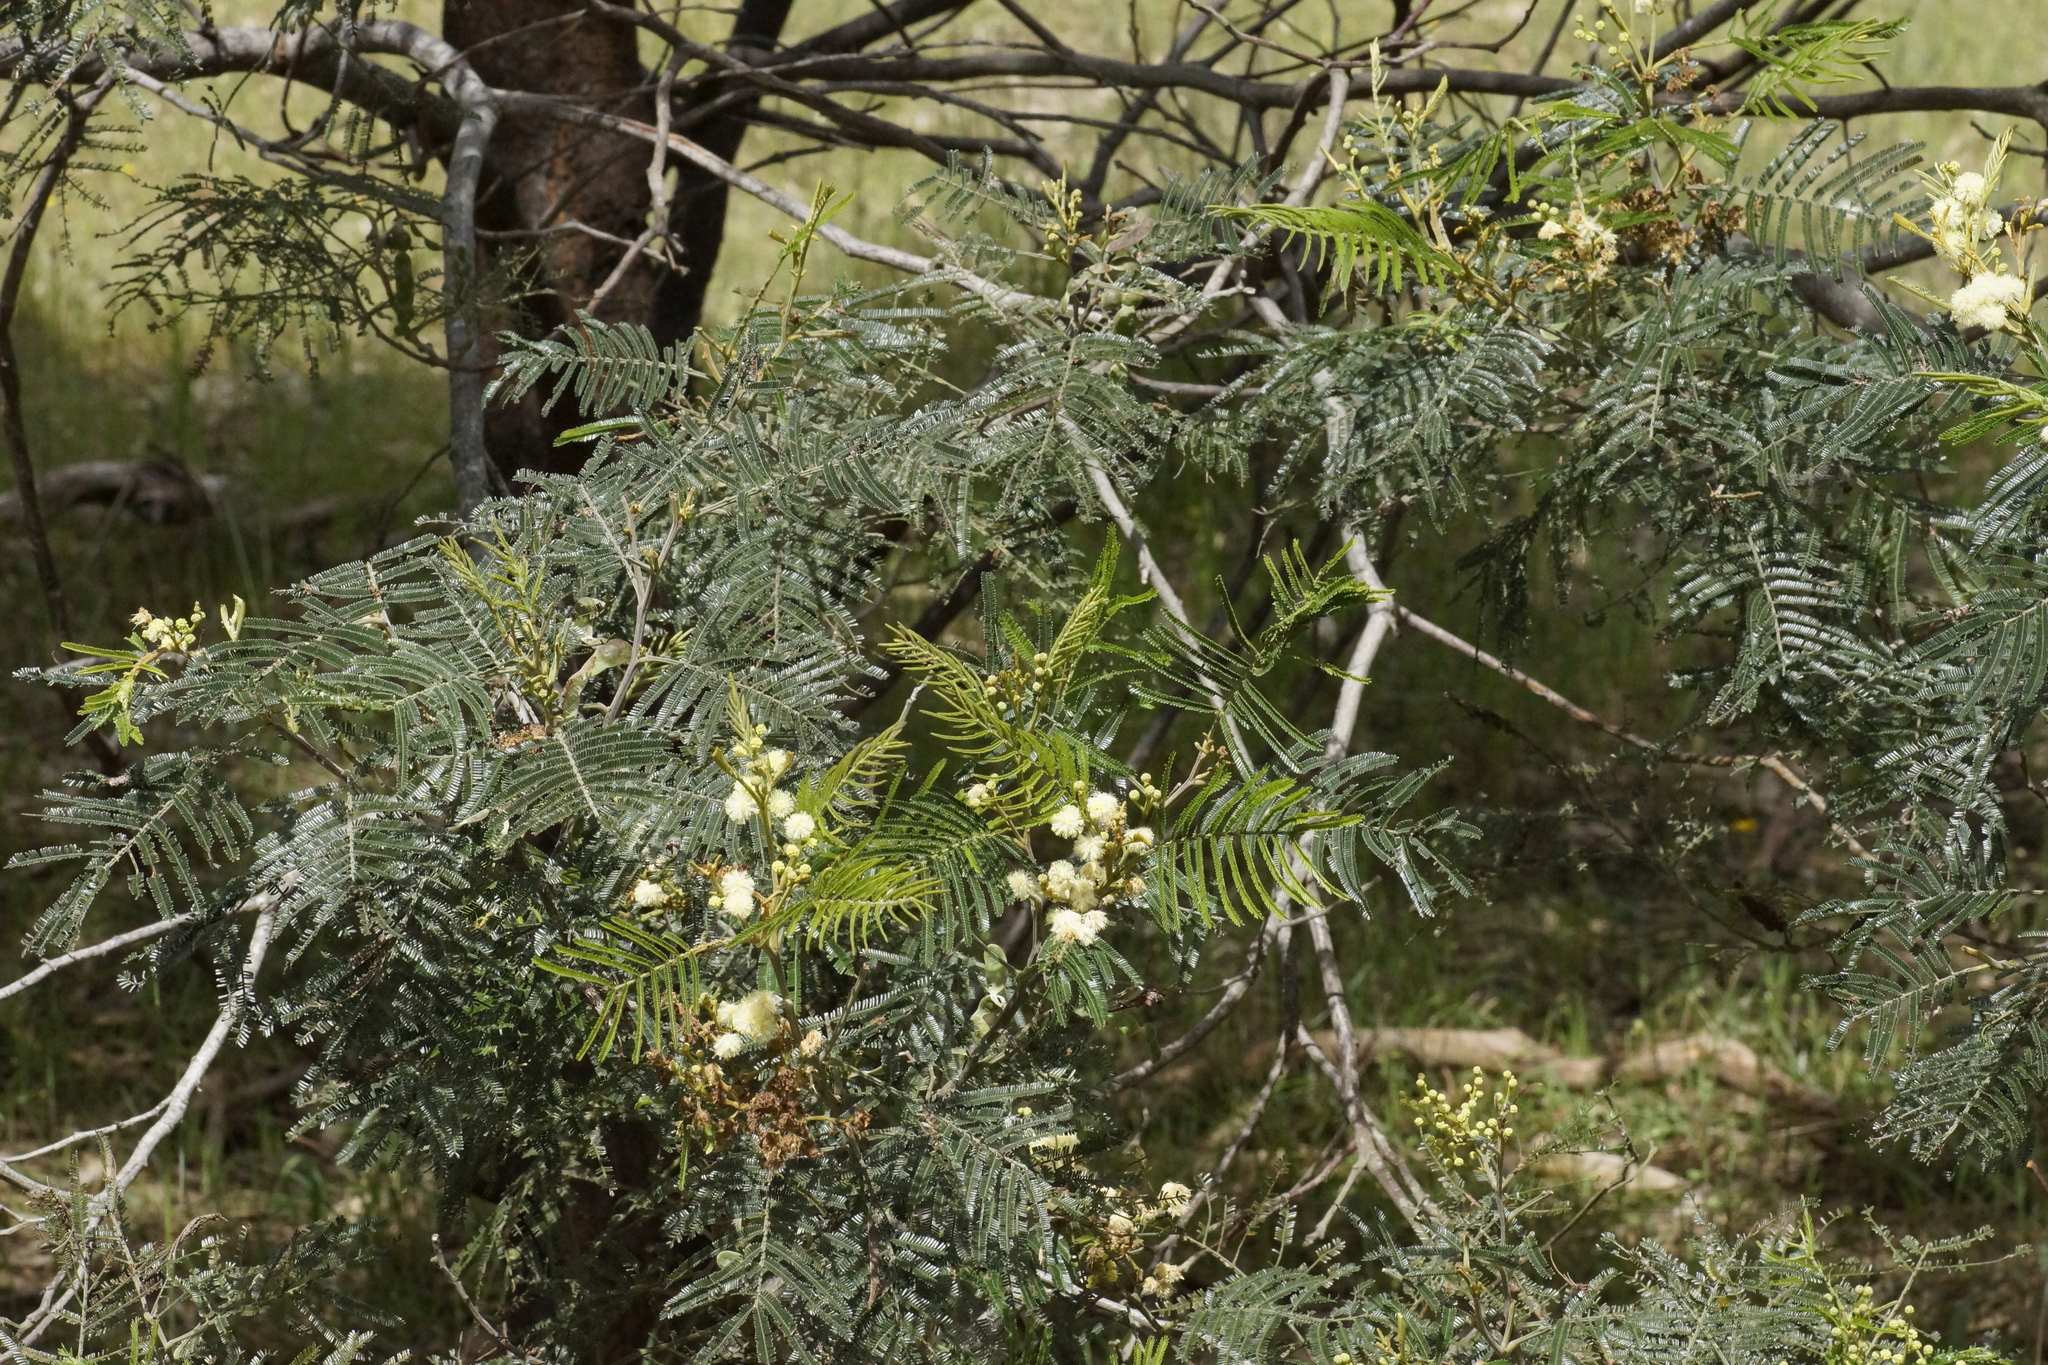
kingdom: Plantae
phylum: Tracheophyta
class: Magnoliopsida
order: Fabales
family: Fabaceae
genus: Acacia
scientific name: Acacia mearnsii
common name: Black wattle
